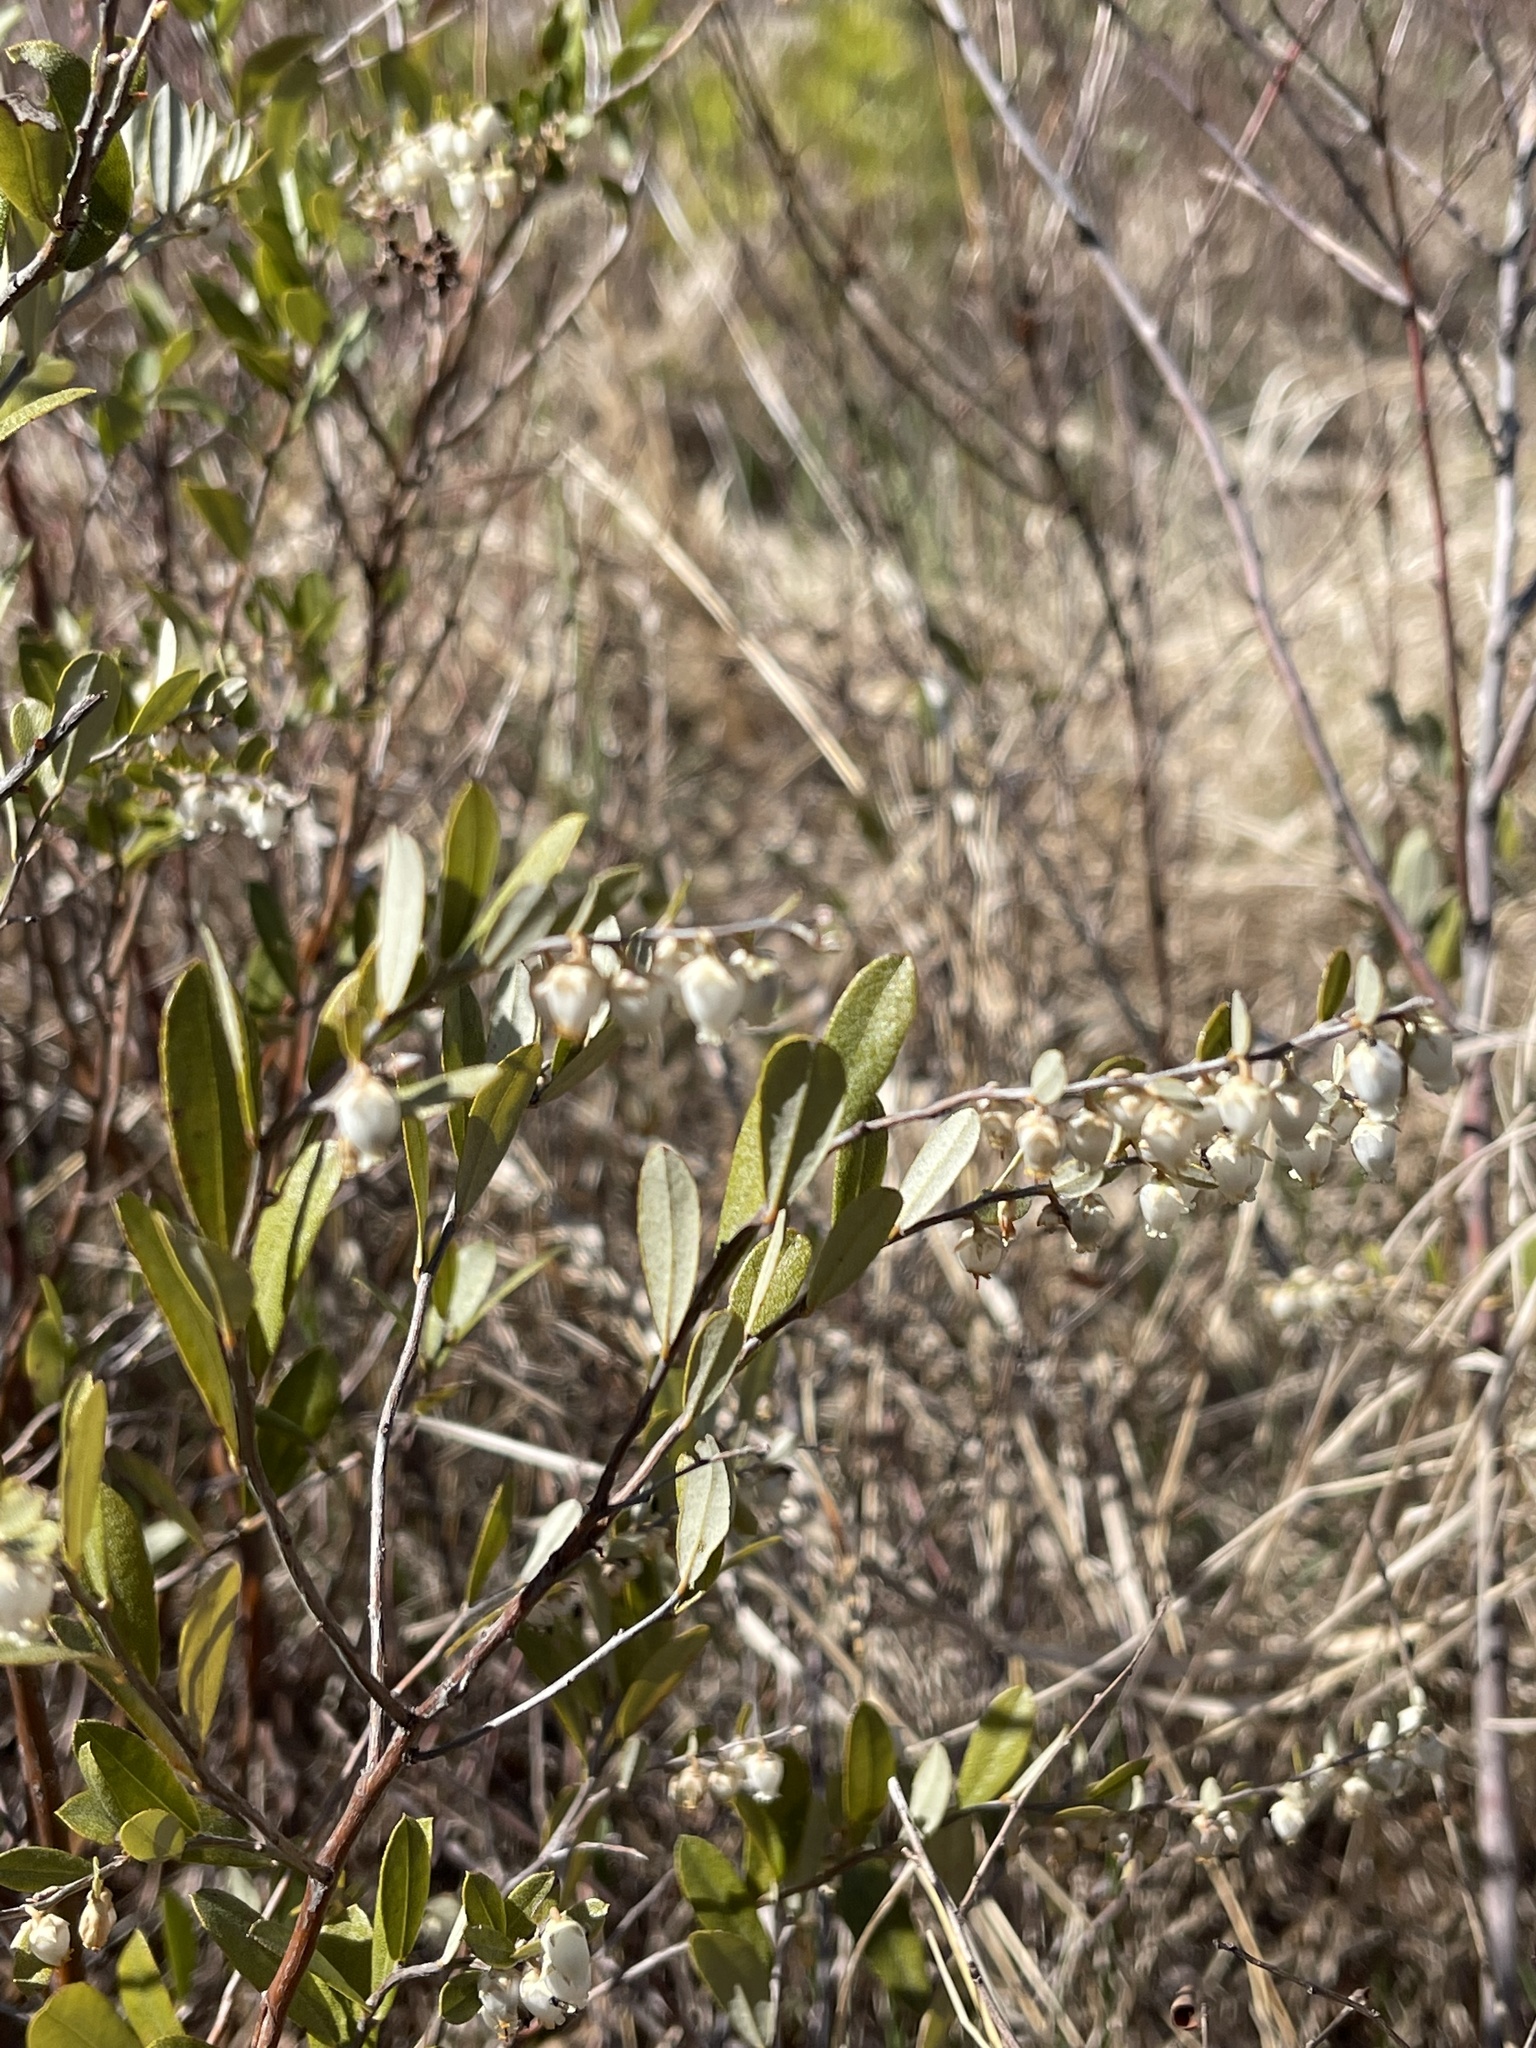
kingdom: Plantae
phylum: Tracheophyta
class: Magnoliopsida
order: Ericales
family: Ericaceae
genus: Chamaedaphne
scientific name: Chamaedaphne calyculata
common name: Leatherleaf
